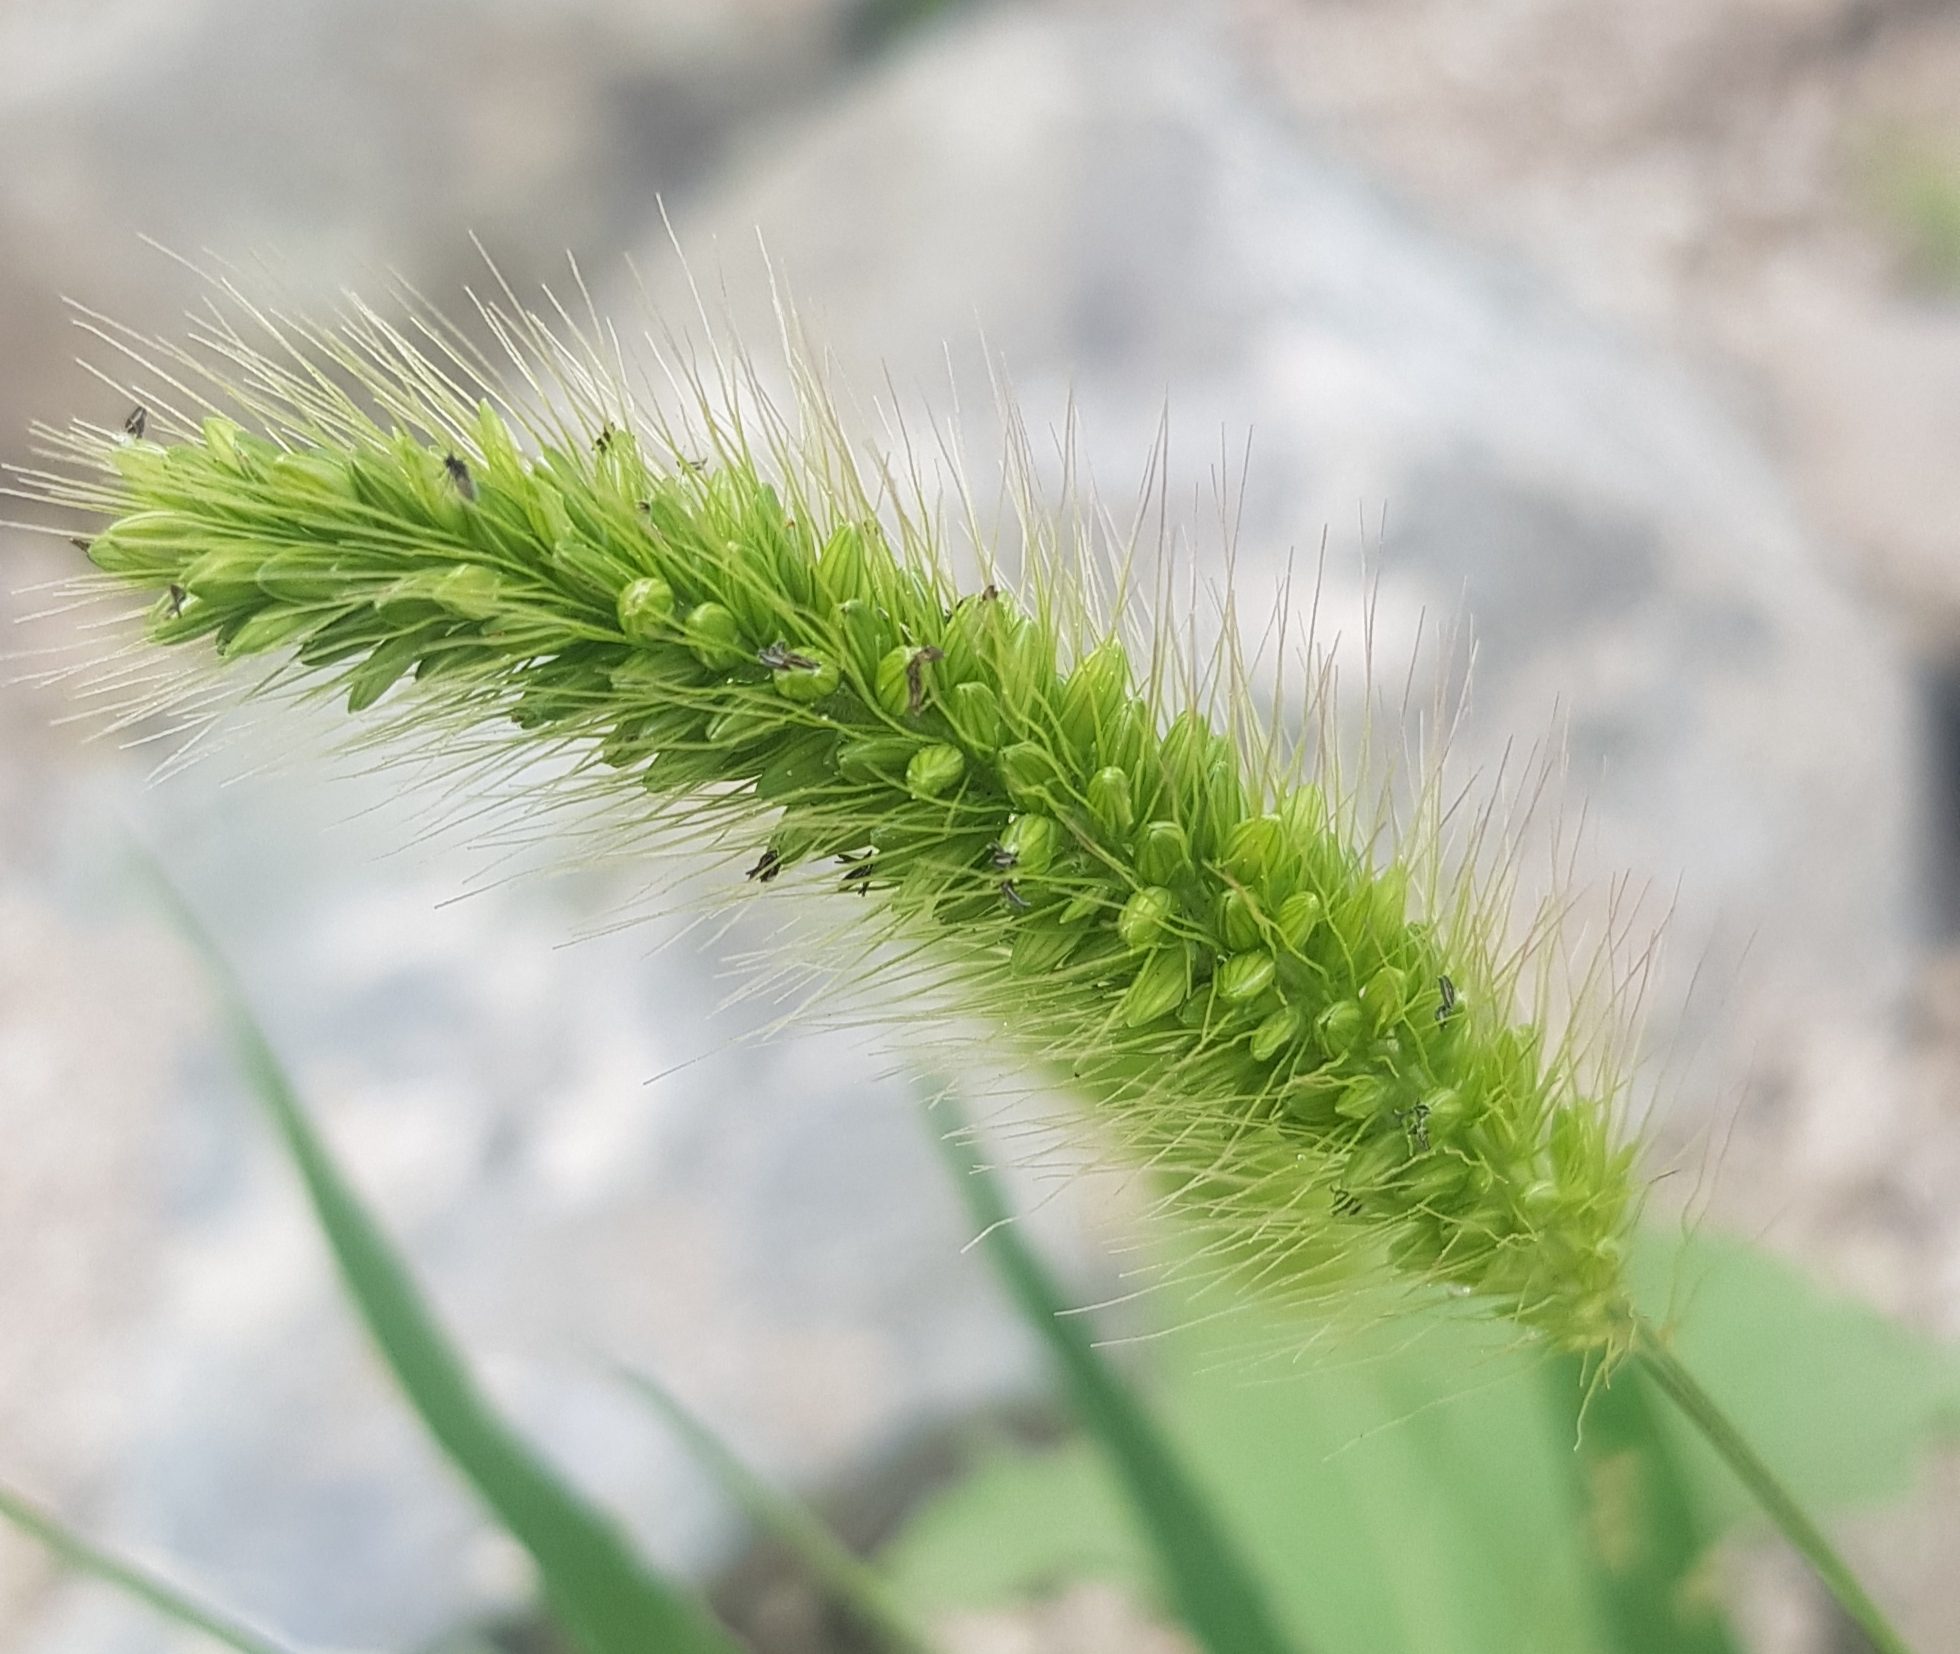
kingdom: Plantae
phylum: Tracheophyta
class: Liliopsida
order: Poales
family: Poaceae
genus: Setaria
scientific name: Setaria viridis
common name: Green bristlegrass
